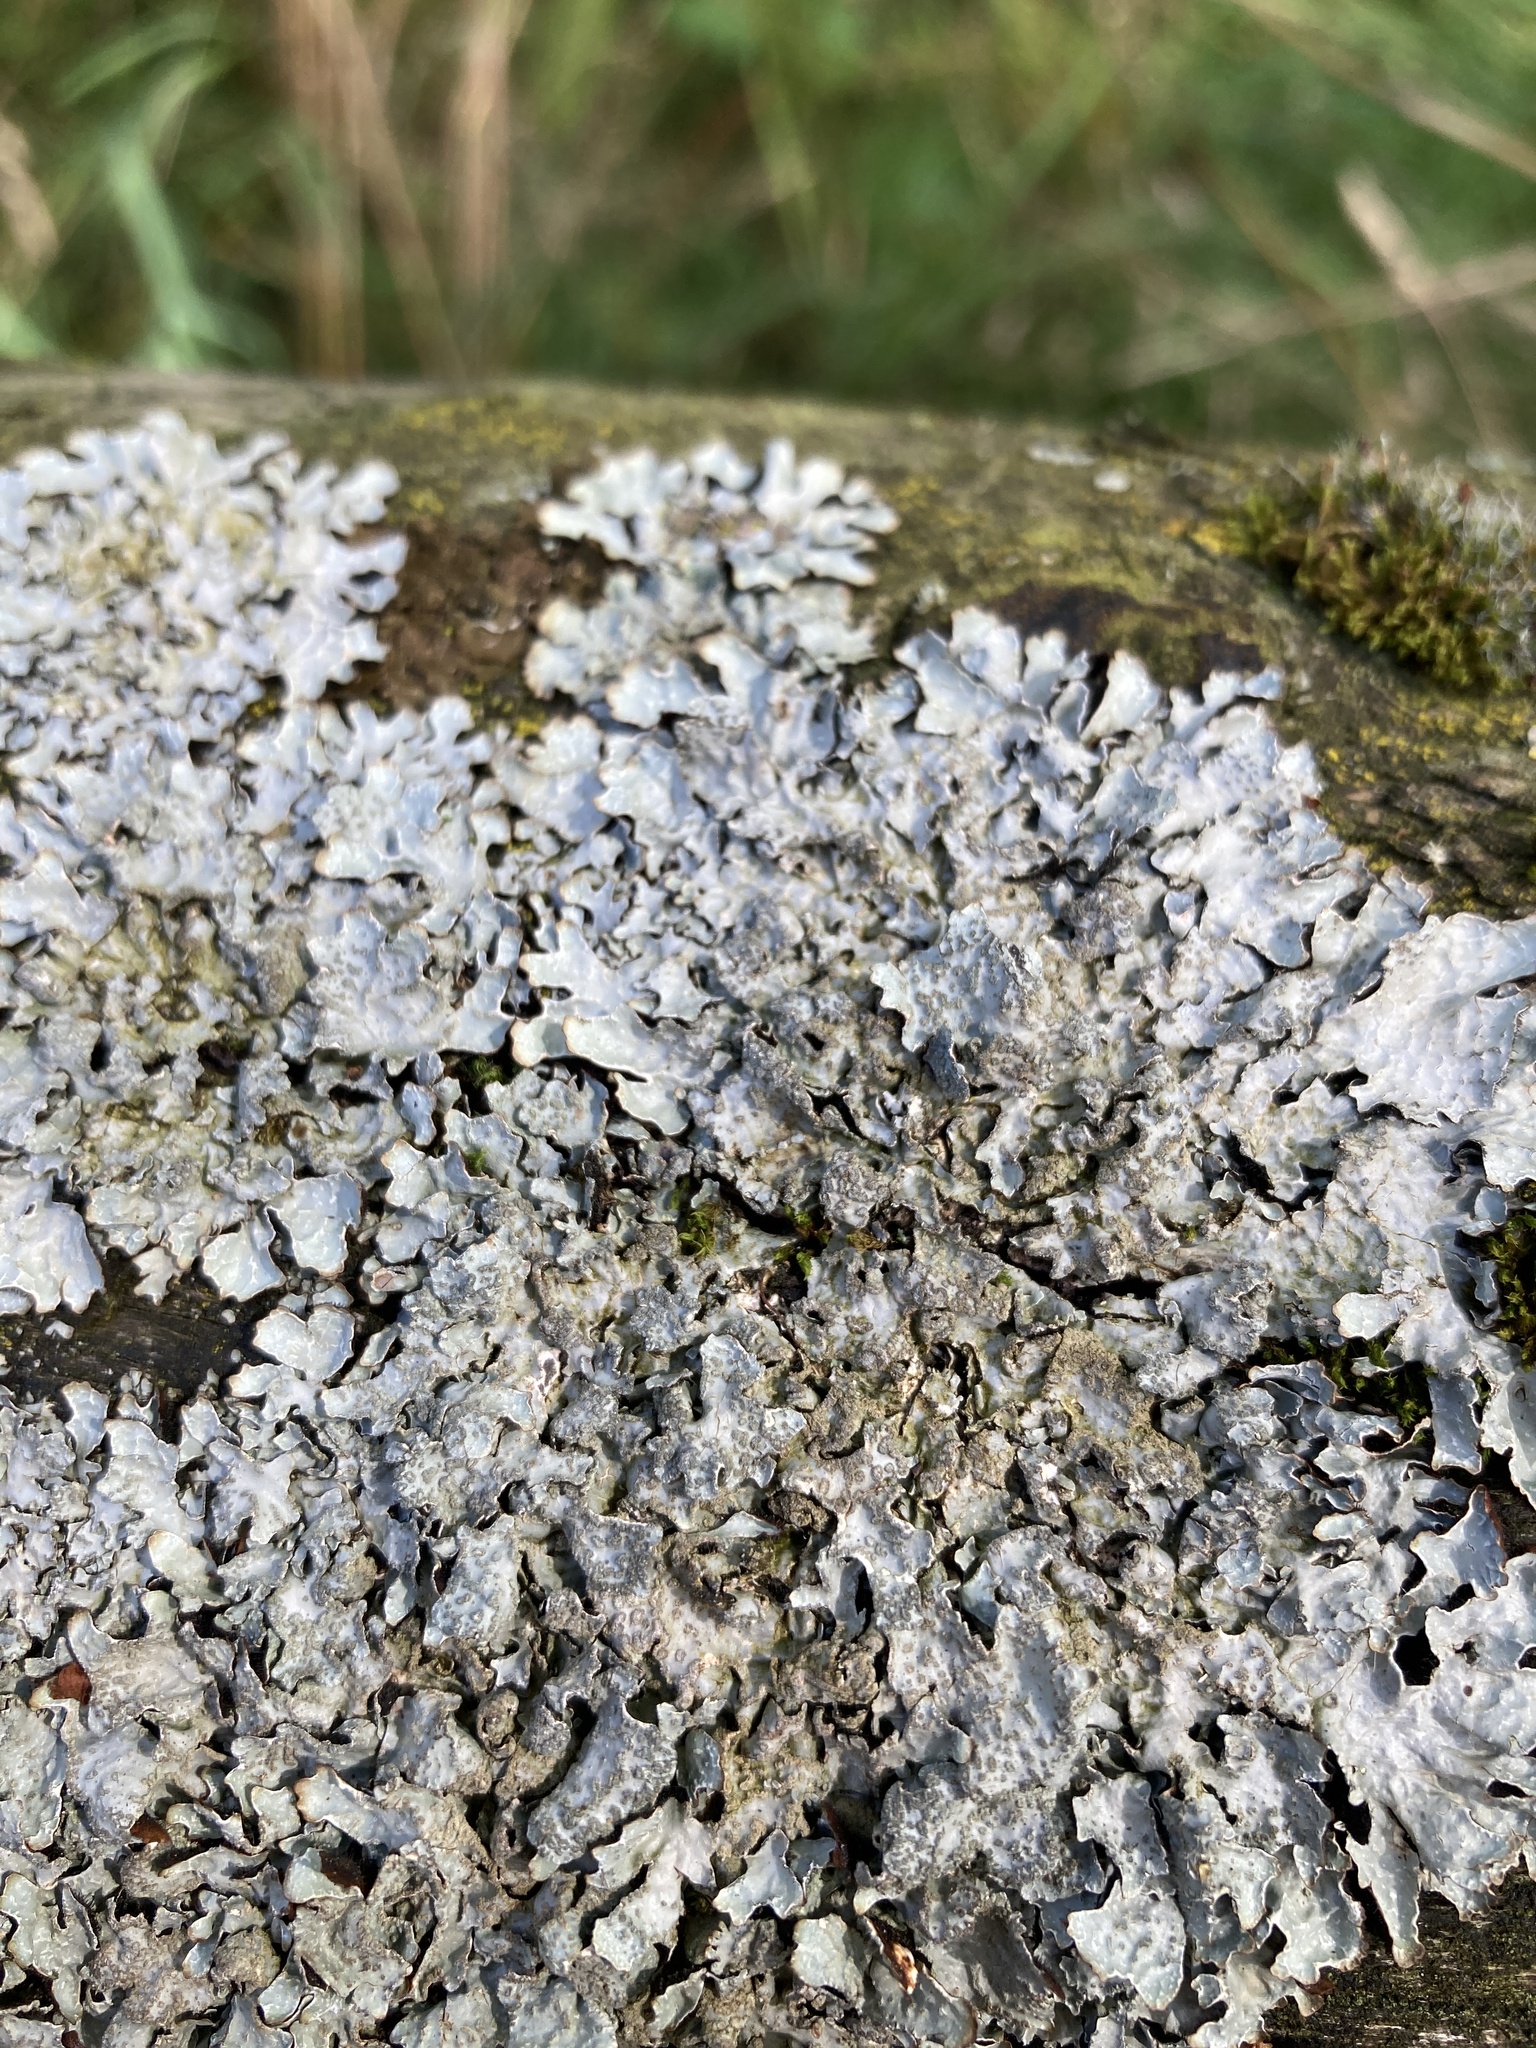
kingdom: Fungi
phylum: Ascomycota
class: Lecanoromycetes
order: Lecanorales
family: Parmeliaceae
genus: Parmelia
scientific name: Parmelia sulcata
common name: Netted shield lichen
